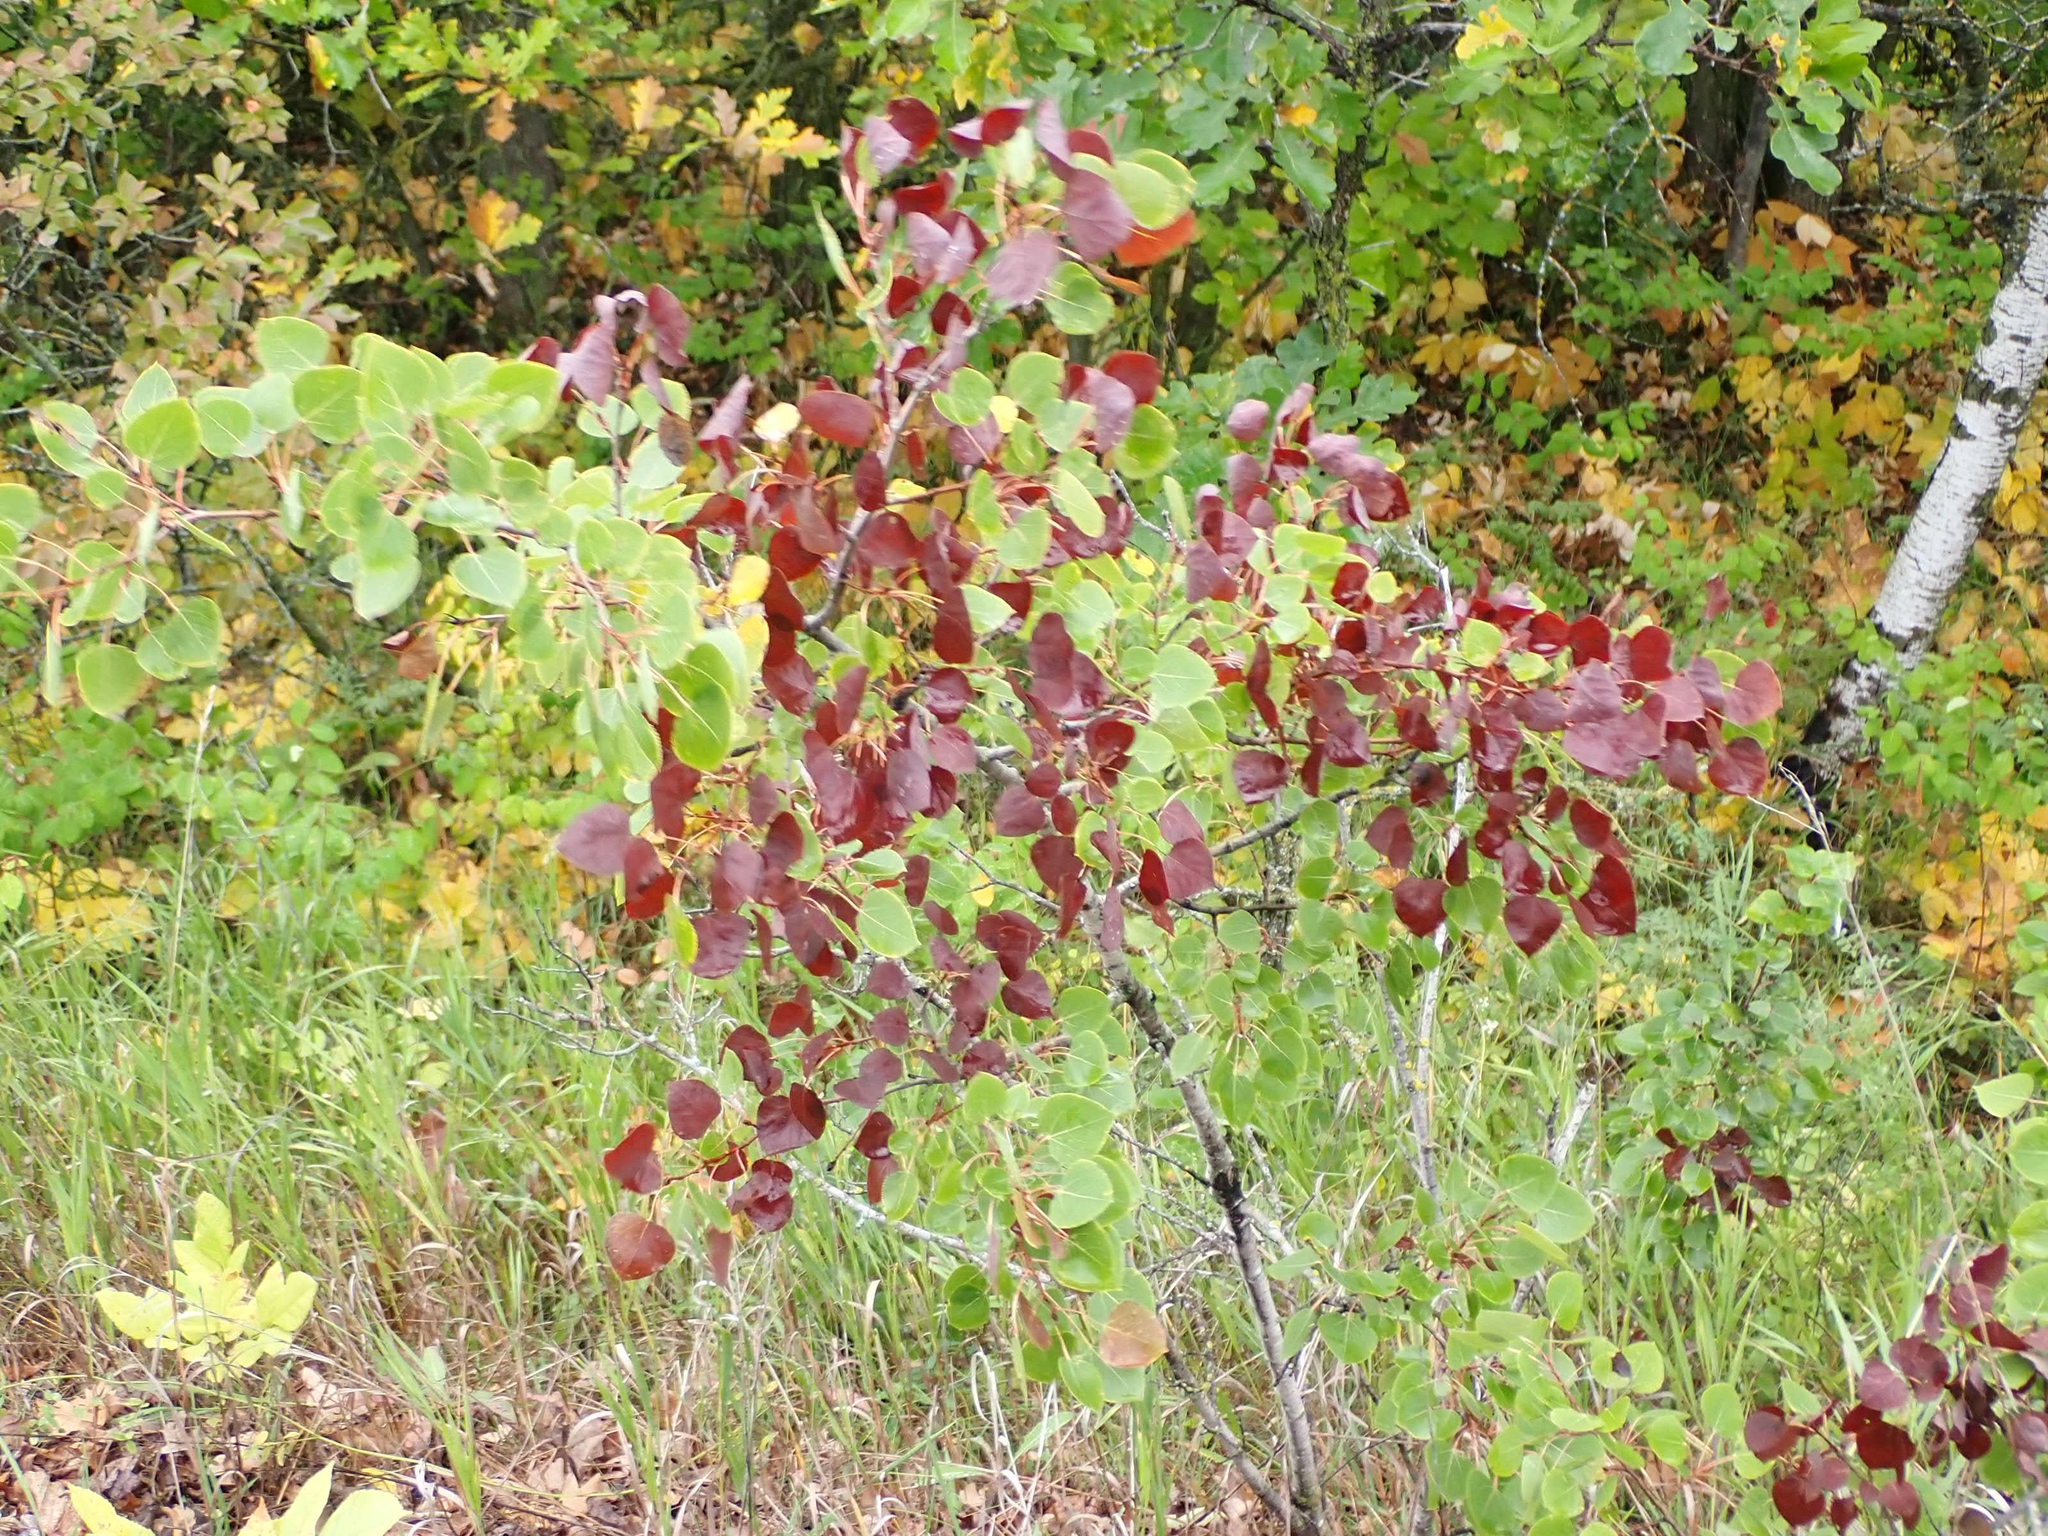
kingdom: Plantae
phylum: Tracheophyta
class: Magnoliopsida
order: Malpighiales
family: Salicaceae
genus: Populus
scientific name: Populus tremuloides
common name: Quaking aspen
